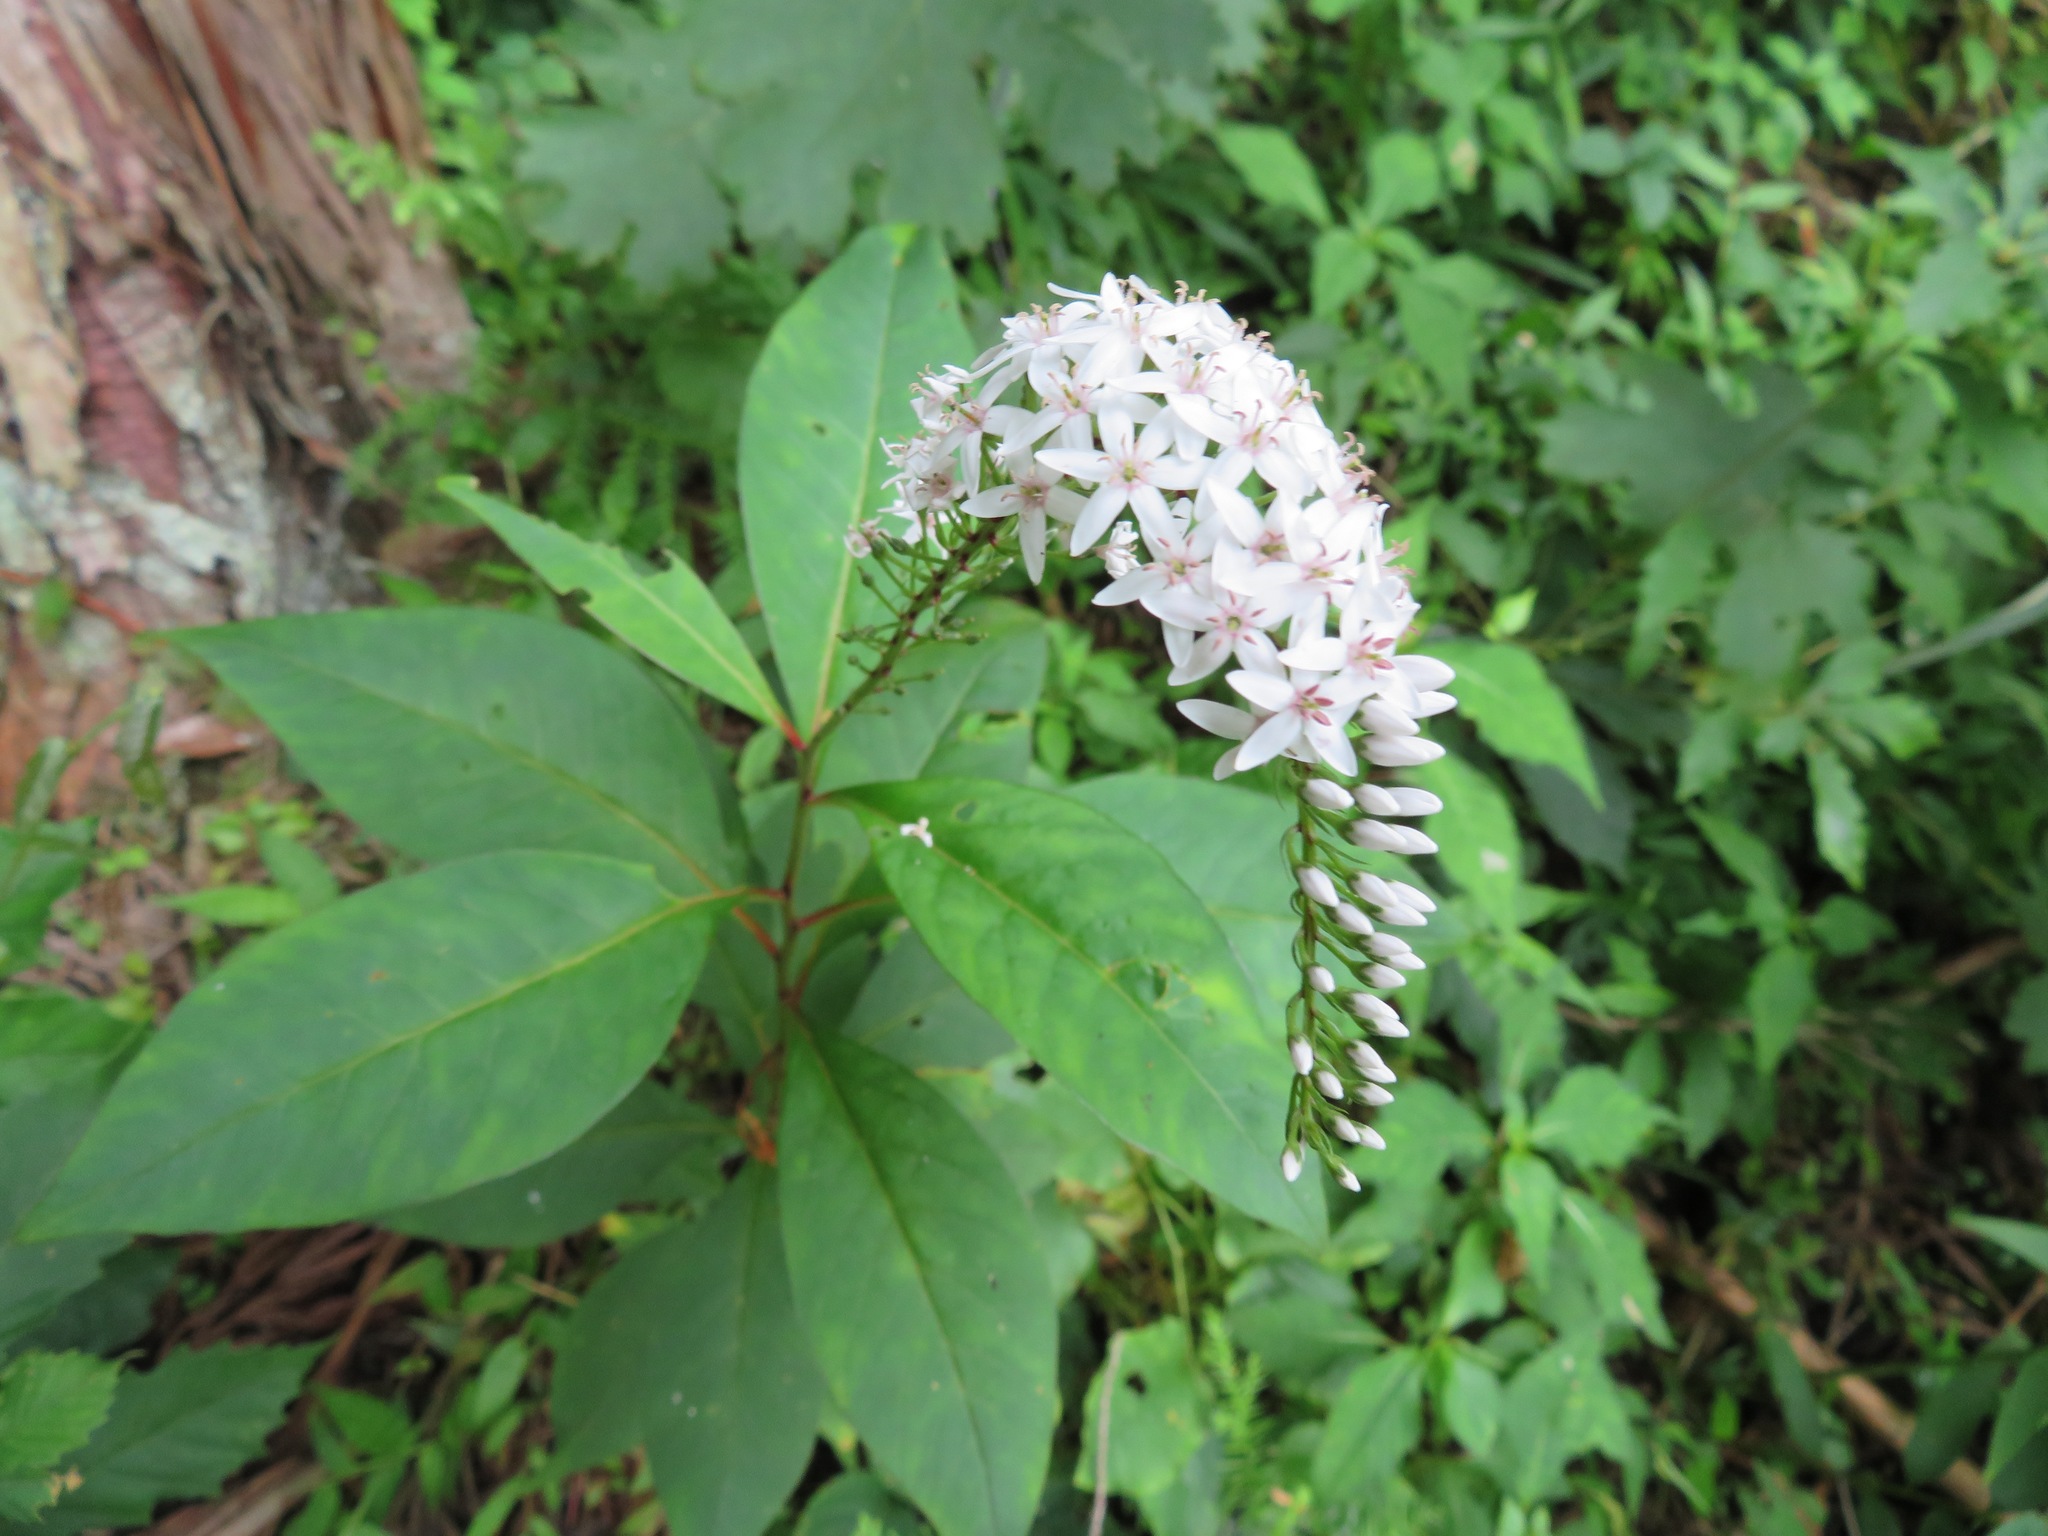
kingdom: Plantae
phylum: Tracheophyta
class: Magnoliopsida
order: Ericales
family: Primulaceae
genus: Lysimachia
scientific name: Lysimachia clethroides
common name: Gooseneck loosestrife
